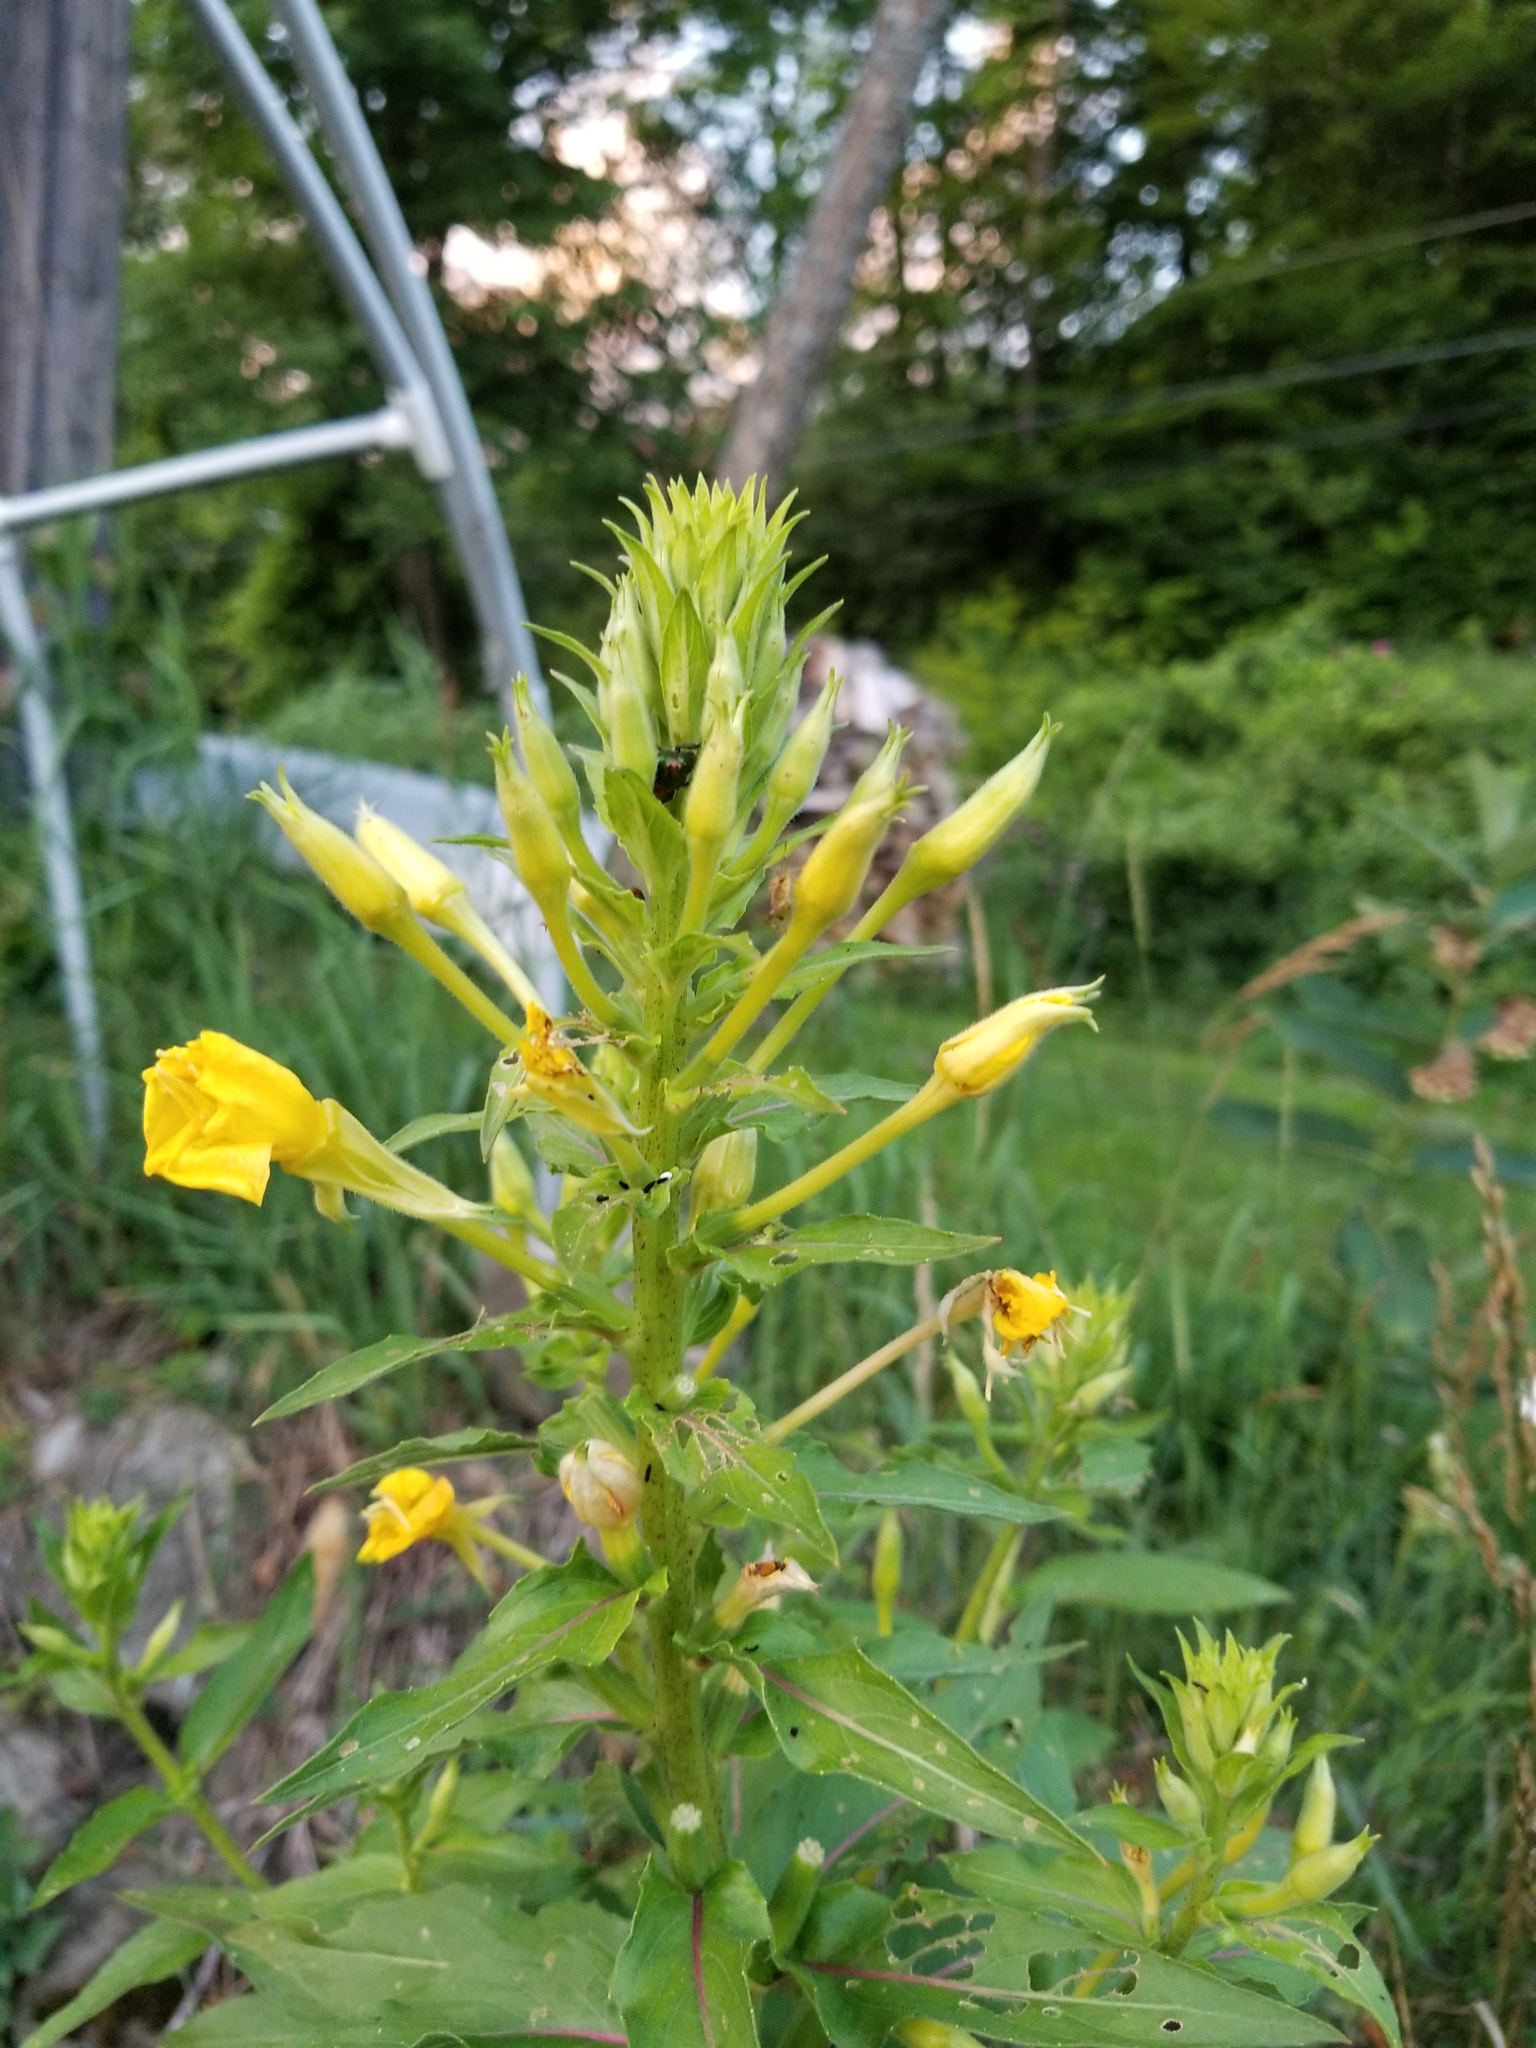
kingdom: Plantae
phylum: Tracheophyta
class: Magnoliopsida
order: Myrtales
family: Onagraceae
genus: Oenothera
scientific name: Oenothera biennis
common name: Common evening-primrose
